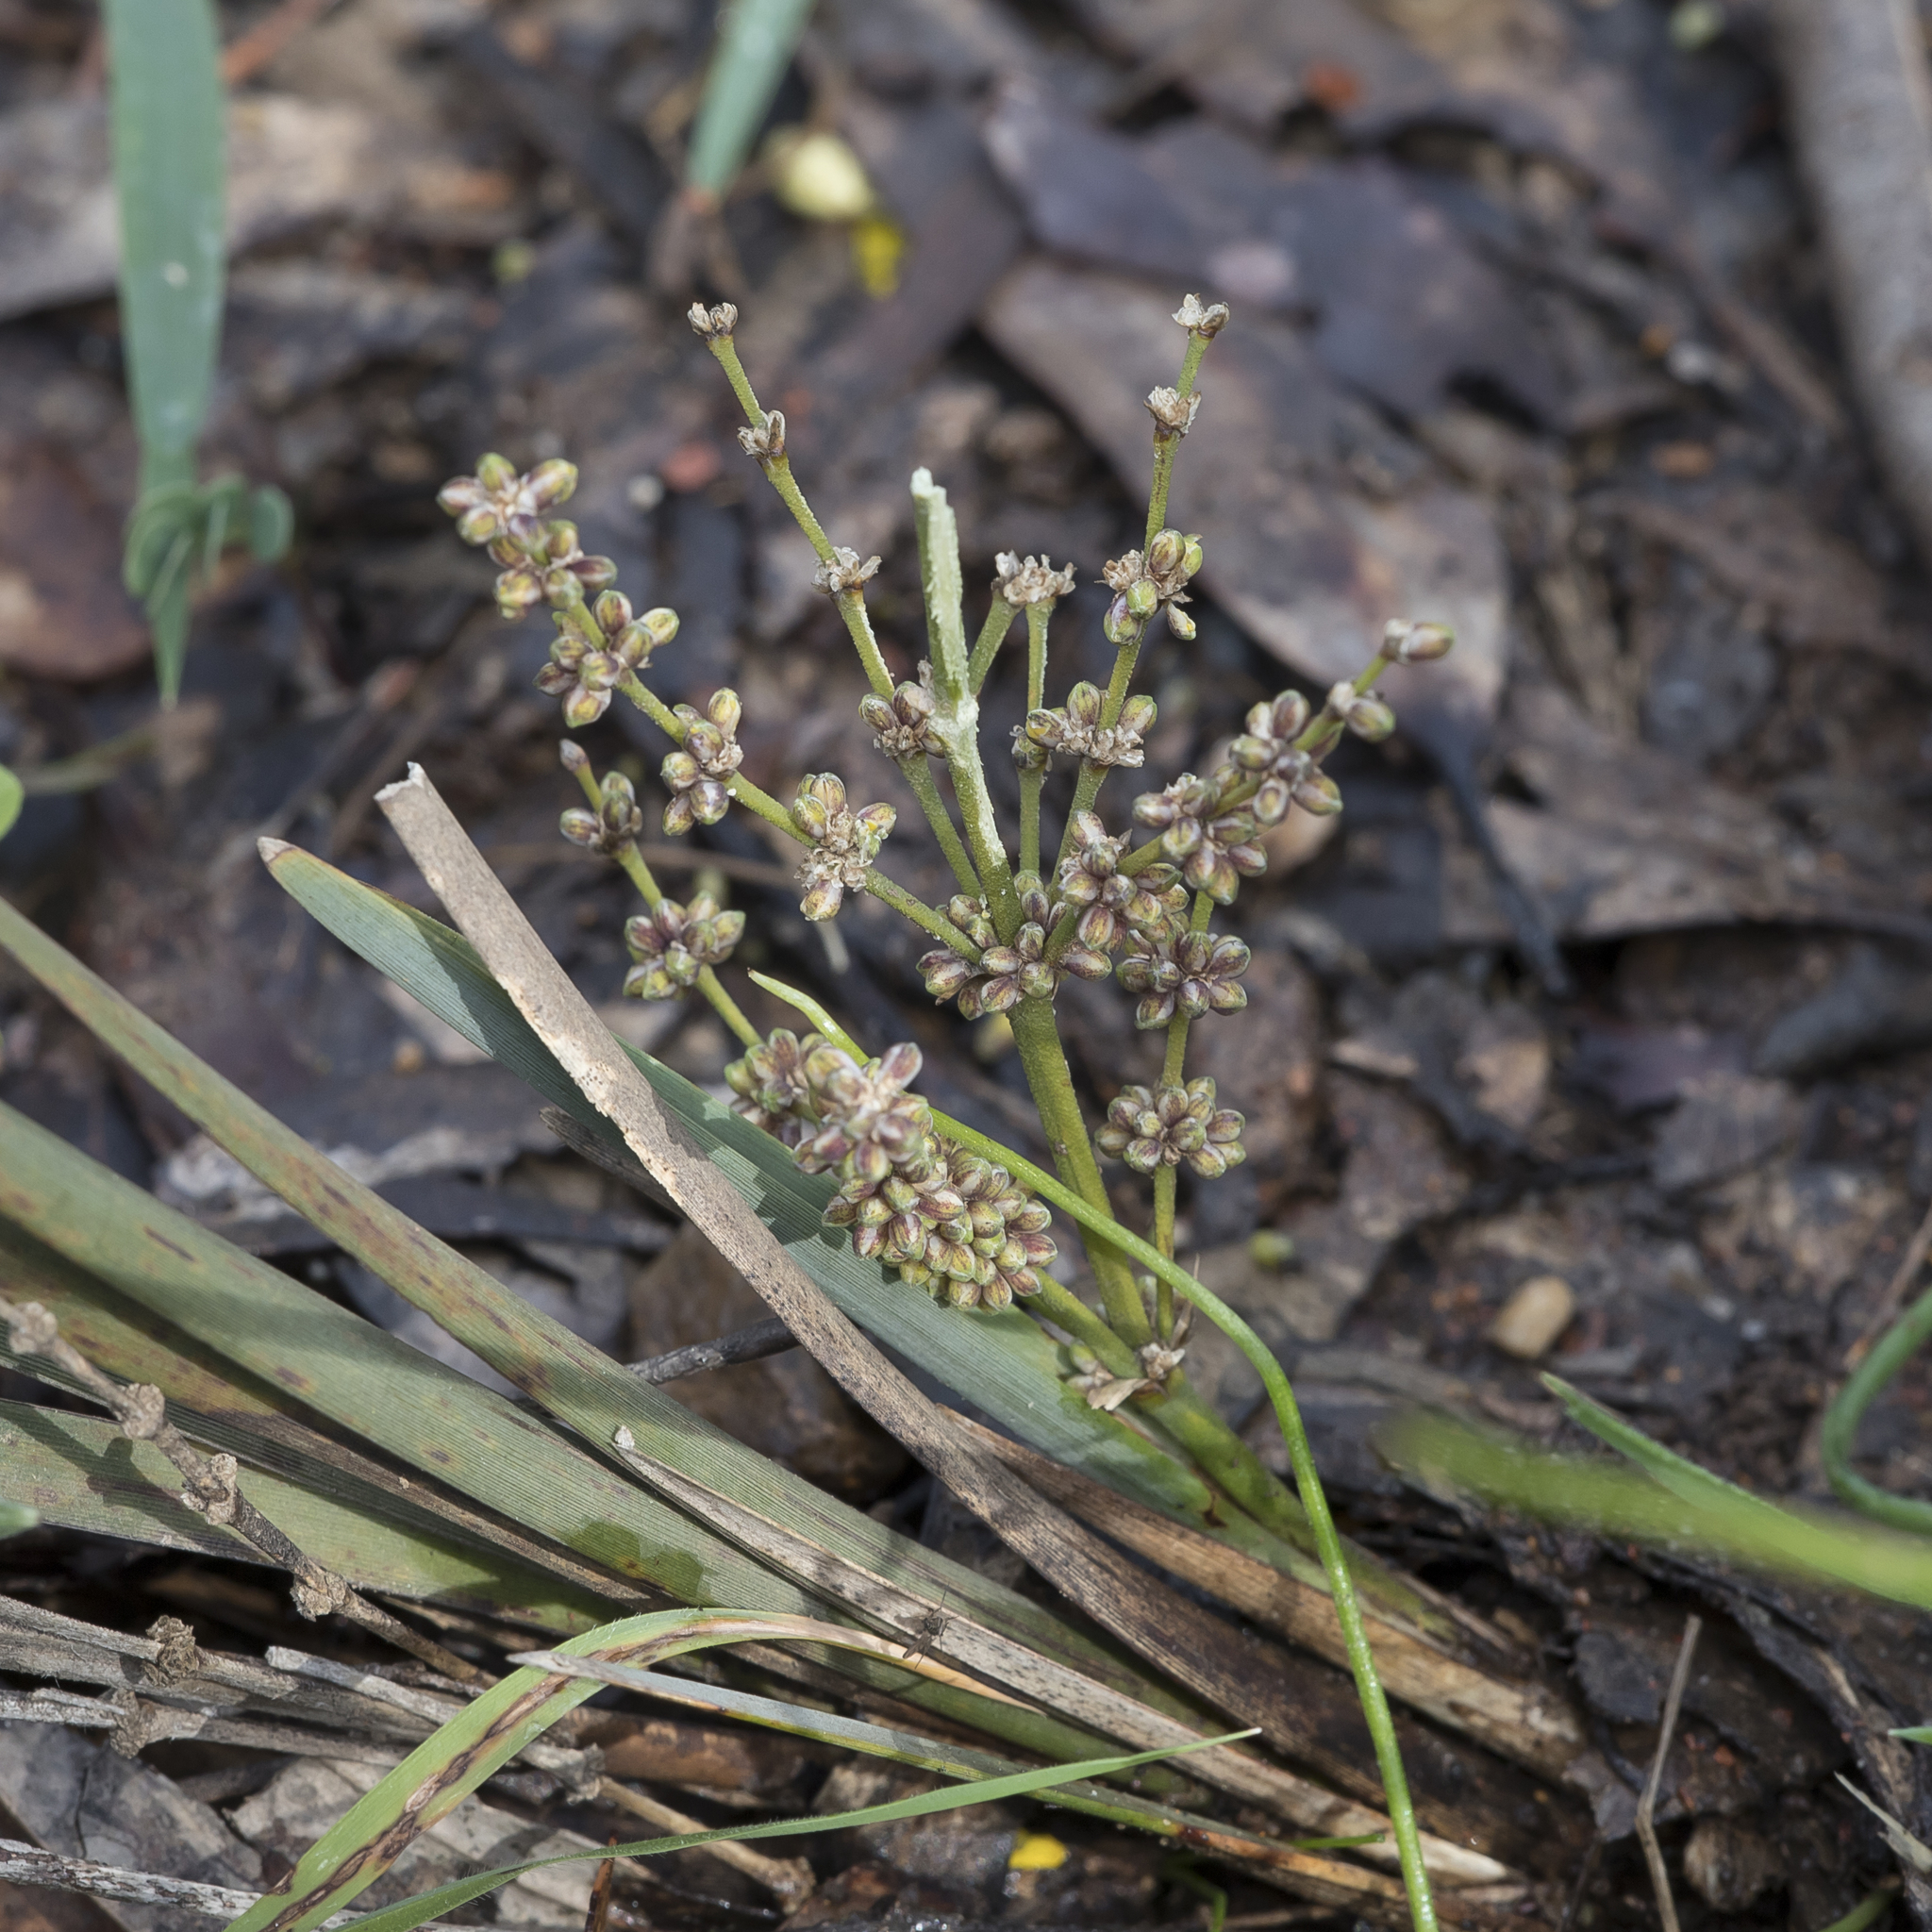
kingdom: Plantae
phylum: Tracheophyta
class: Liliopsida
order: Asparagales
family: Asparagaceae
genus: Lomandra
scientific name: Lomandra multiflora
